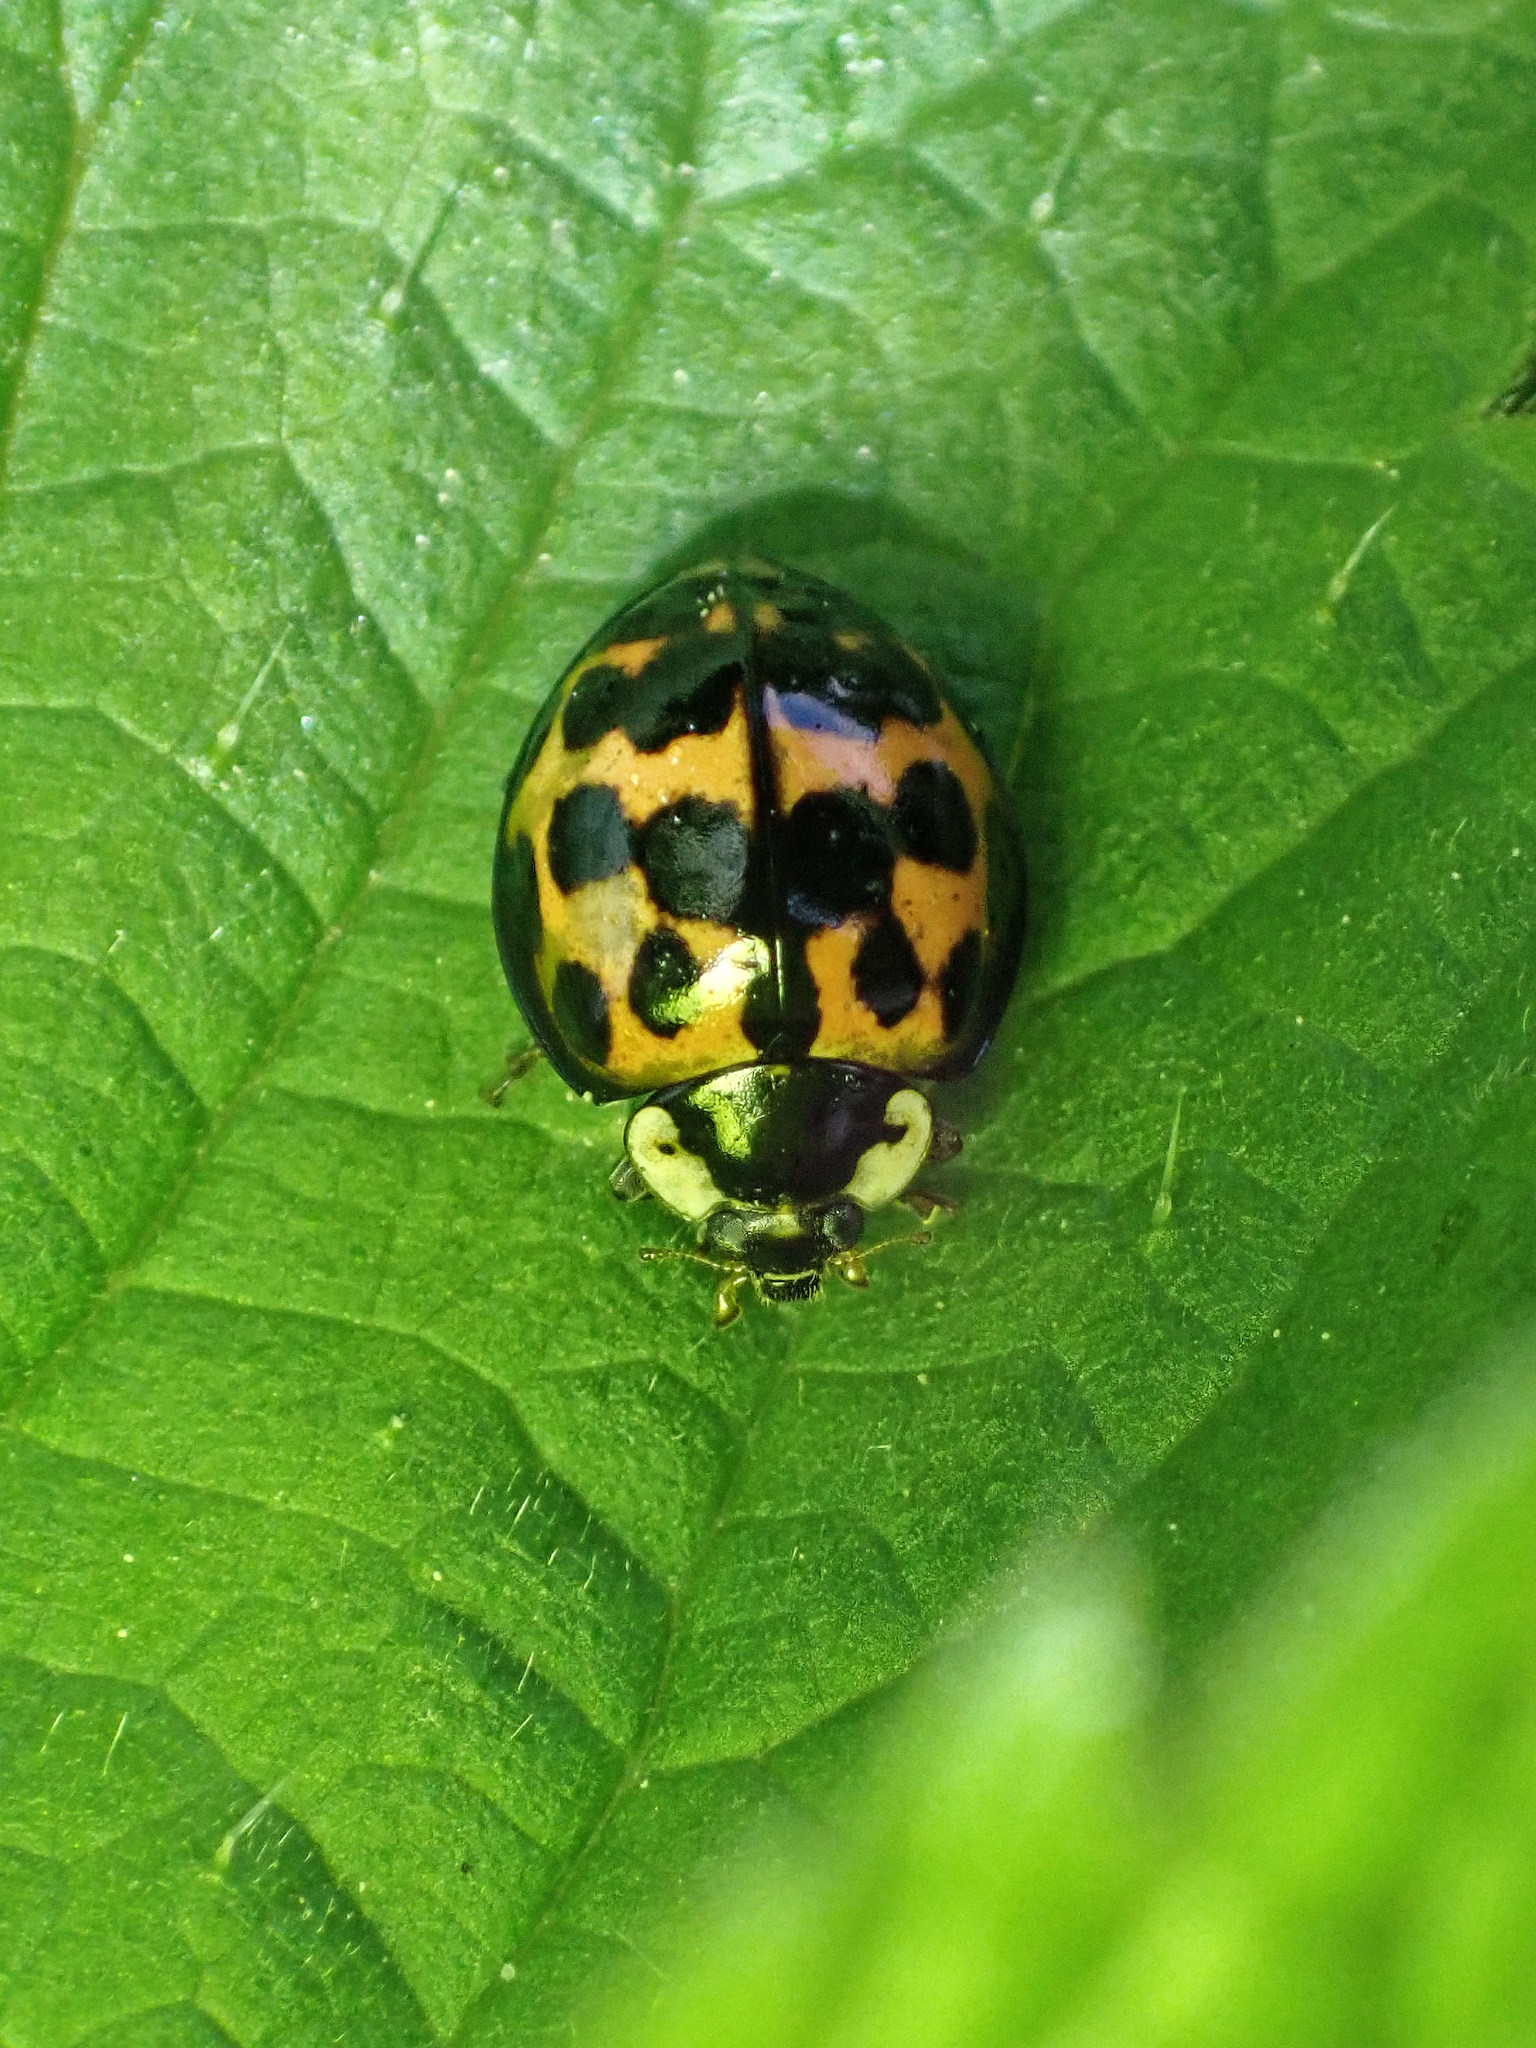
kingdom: Animalia
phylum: Arthropoda
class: Insecta
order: Coleoptera
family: Coccinellidae
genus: Harmonia
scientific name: Harmonia axyridis
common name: Harlequin ladybird
